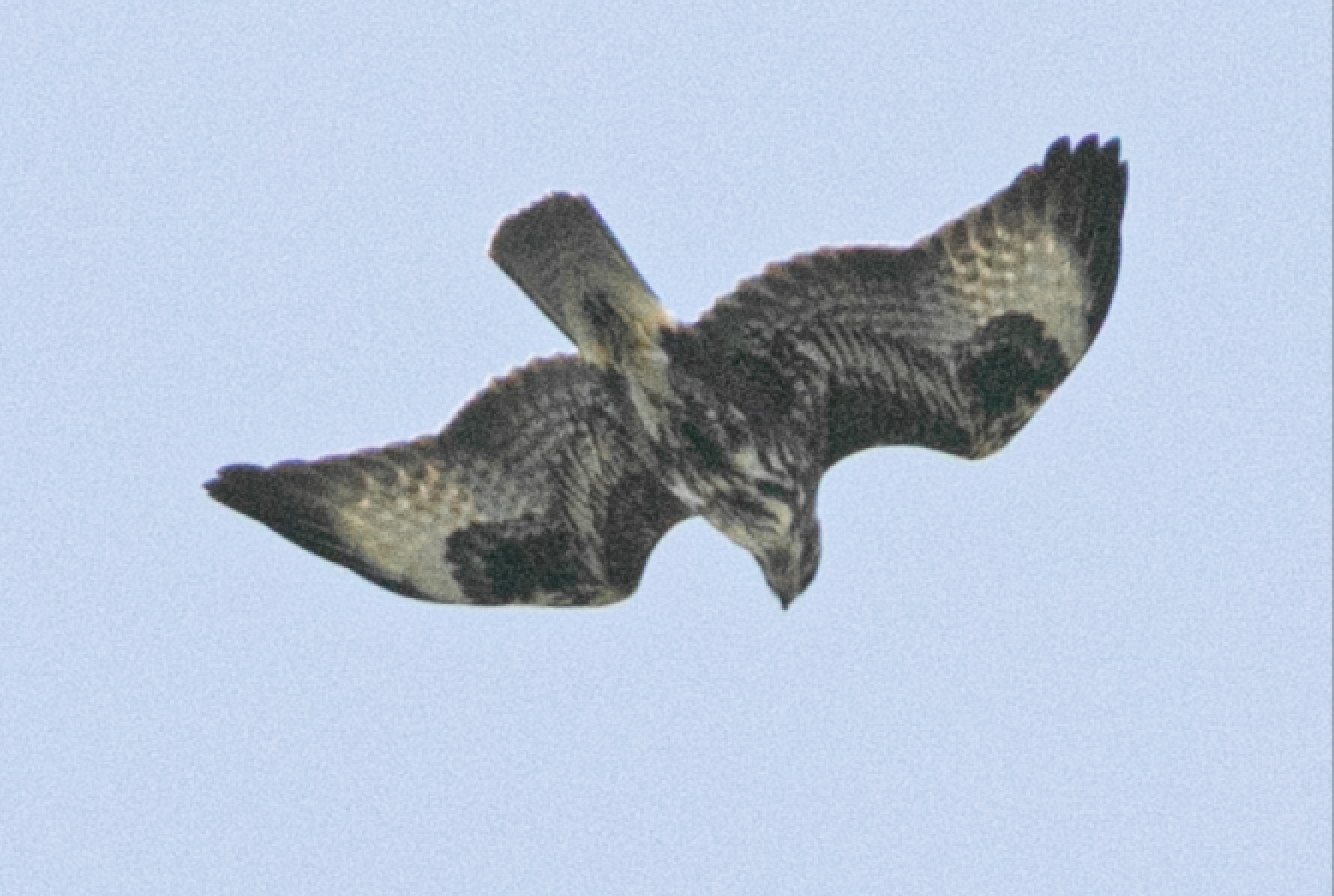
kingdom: Animalia
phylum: Chordata
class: Aves
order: Accipitriformes
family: Accipitridae
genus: Buteo
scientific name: Buteo buteo
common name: Common buzzard
